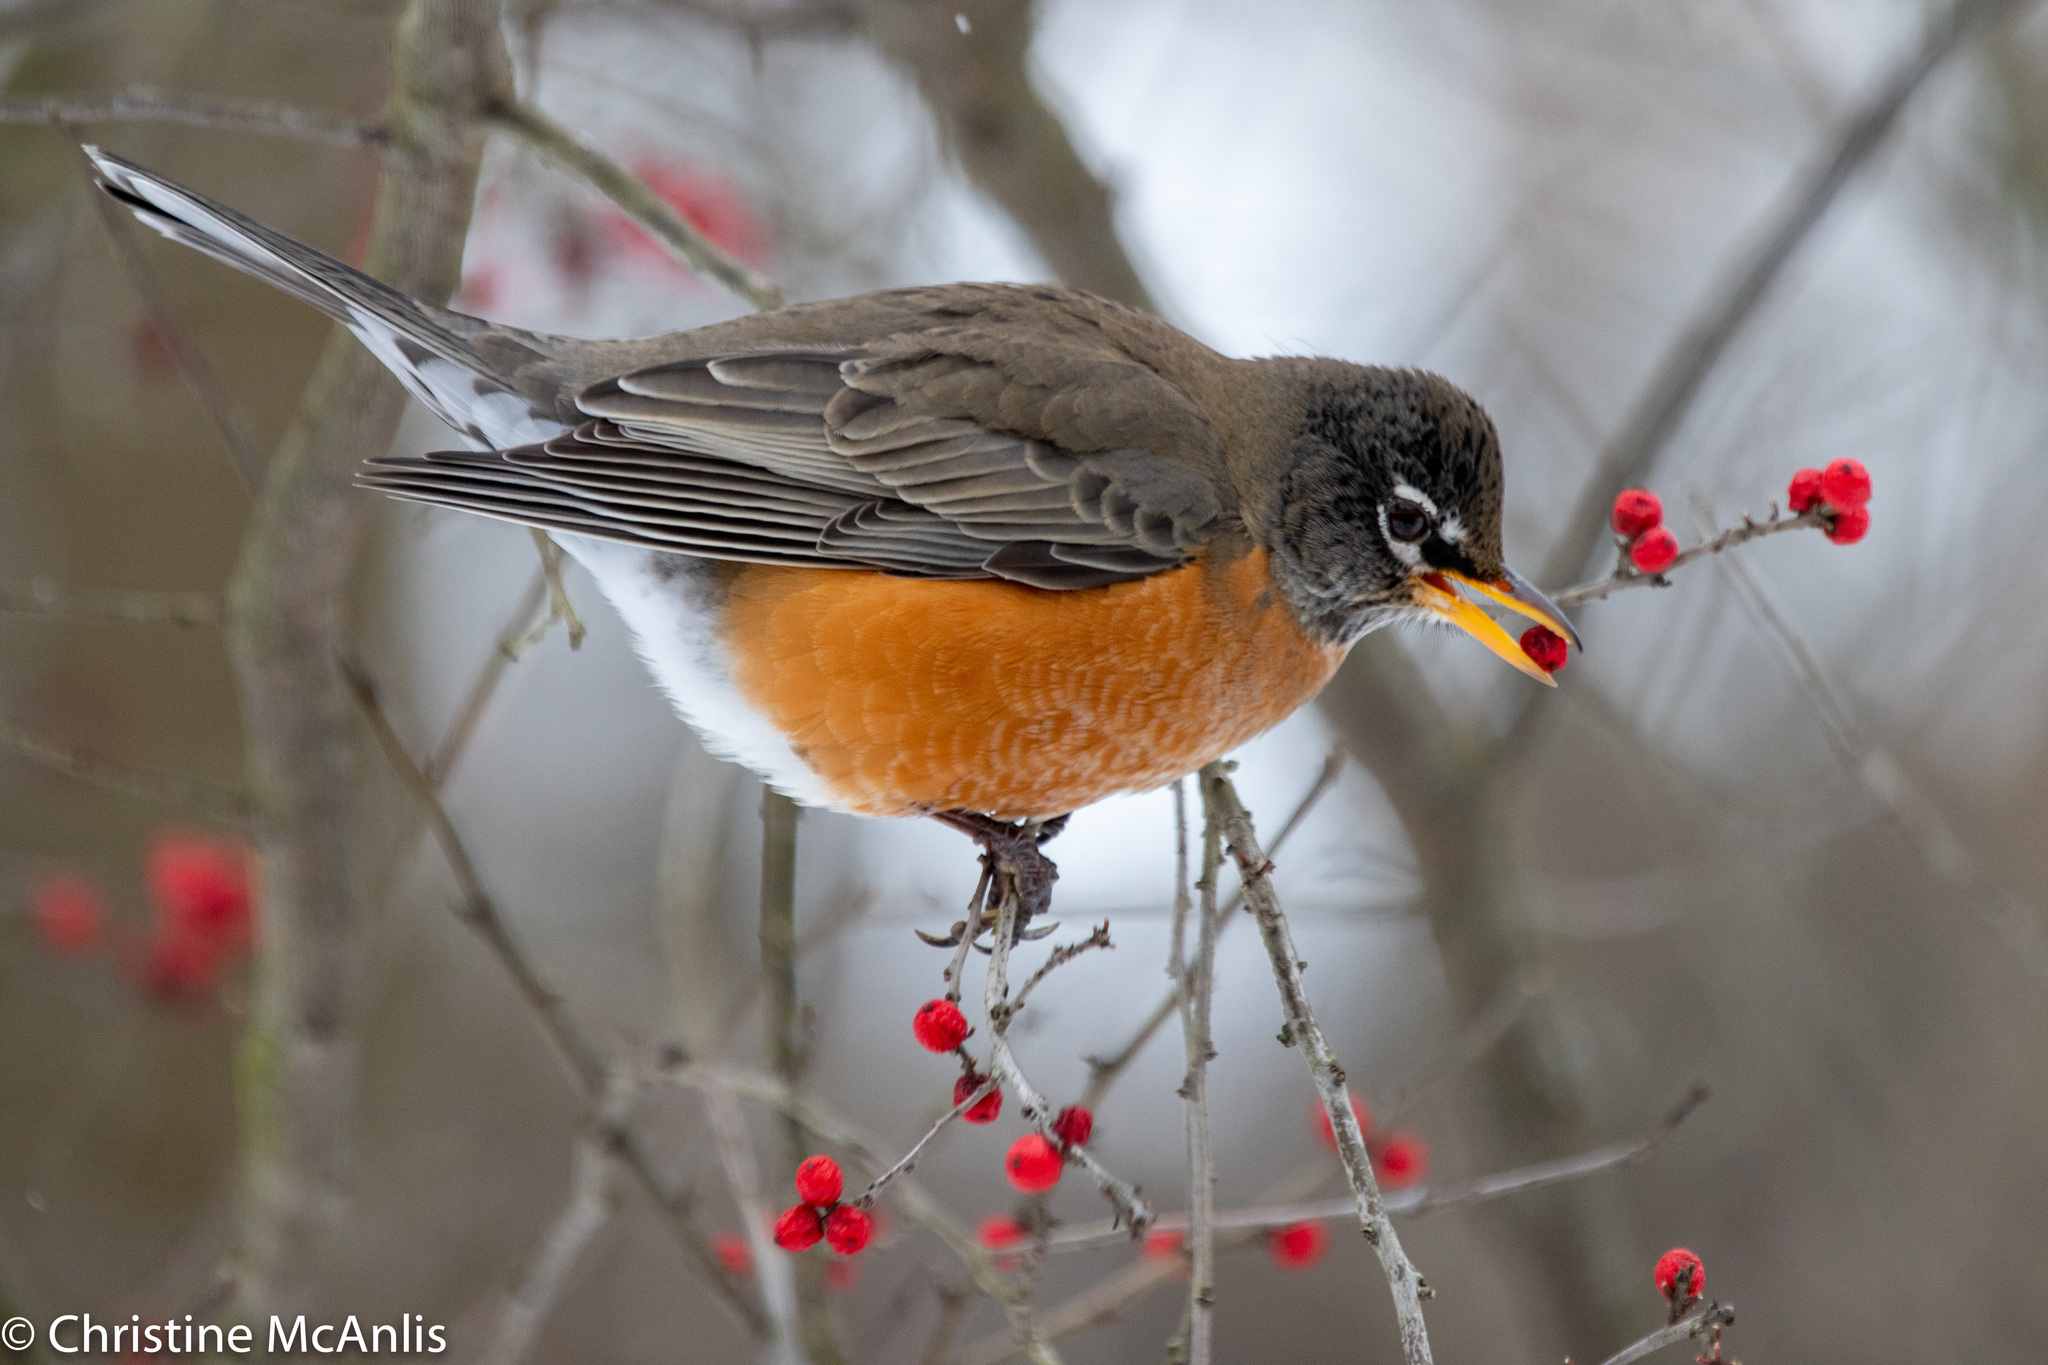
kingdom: Animalia
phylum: Chordata
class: Aves
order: Passeriformes
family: Turdidae
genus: Turdus
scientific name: Turdus migratorius
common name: American robin
